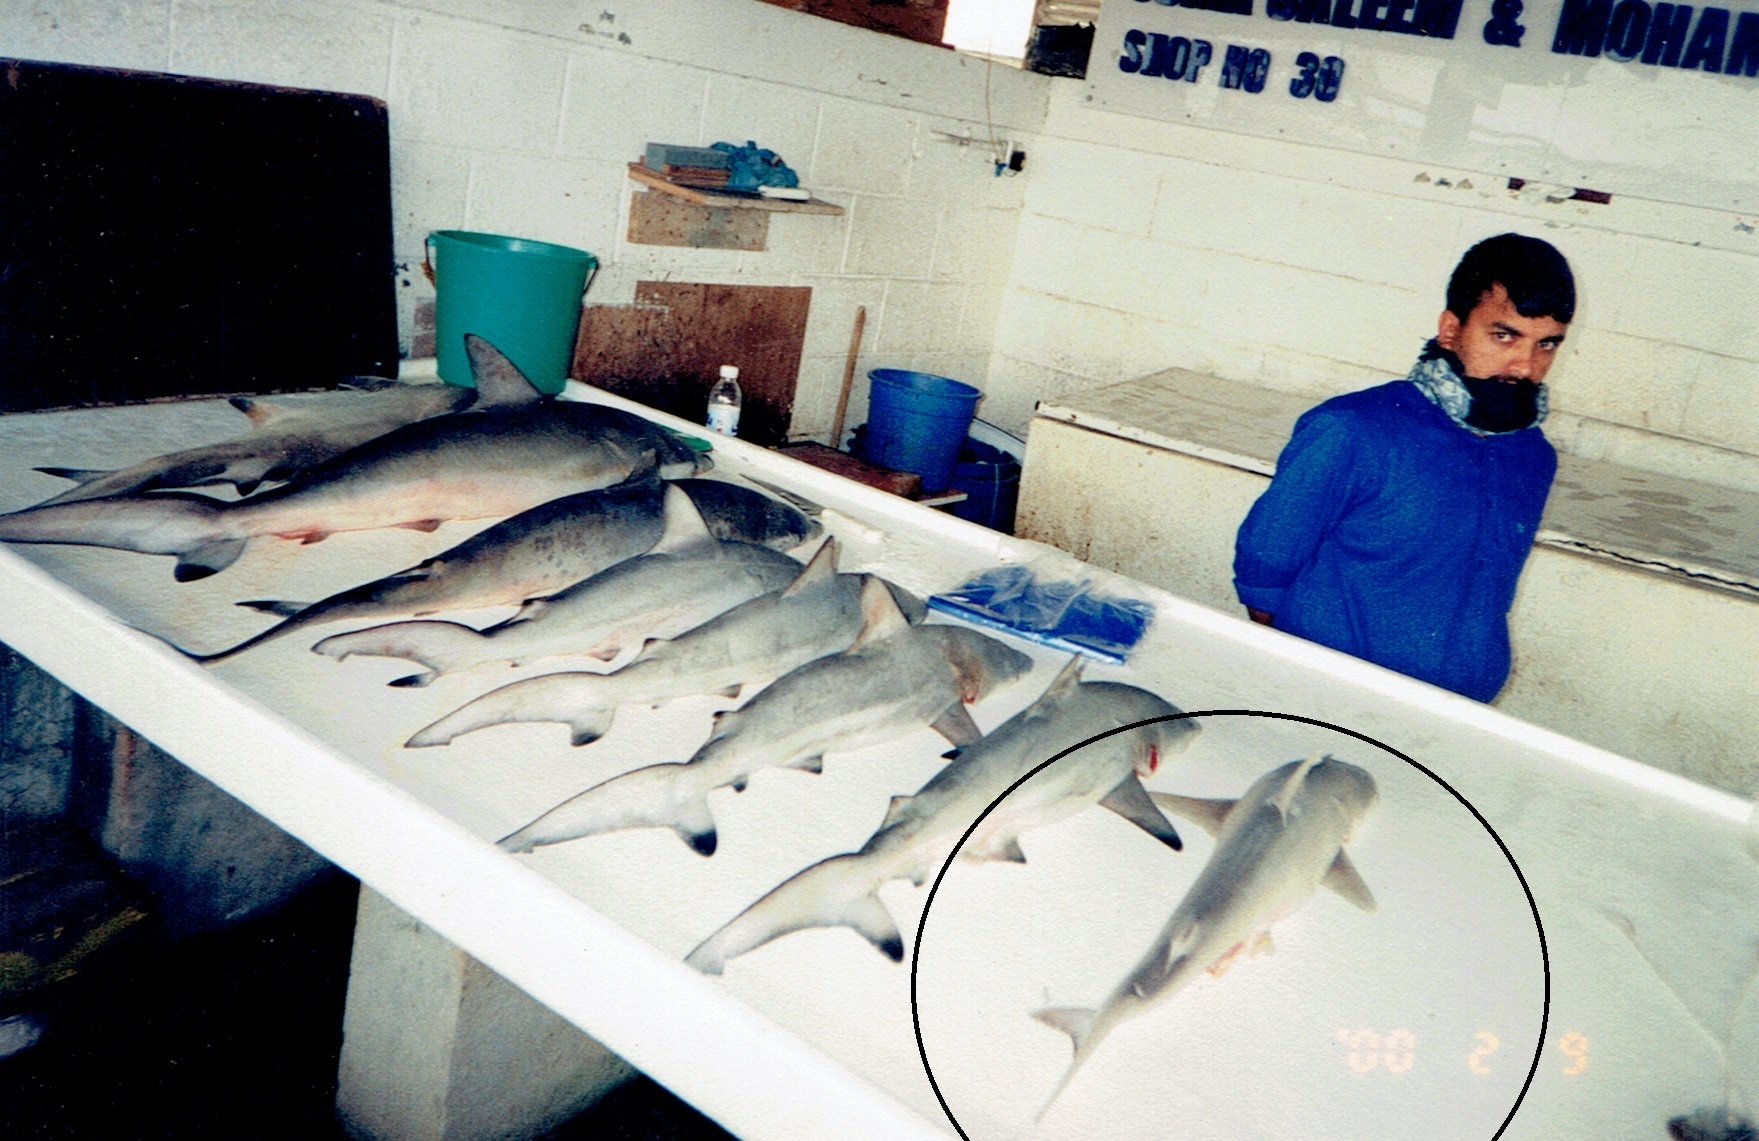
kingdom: Animalia
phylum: Chordata
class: Elasmobranchii
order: Carcharhiniformes
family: Carcharhinidae
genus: Carcharhinus
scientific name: Carcharhinus limbatus
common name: Blacktip shark
